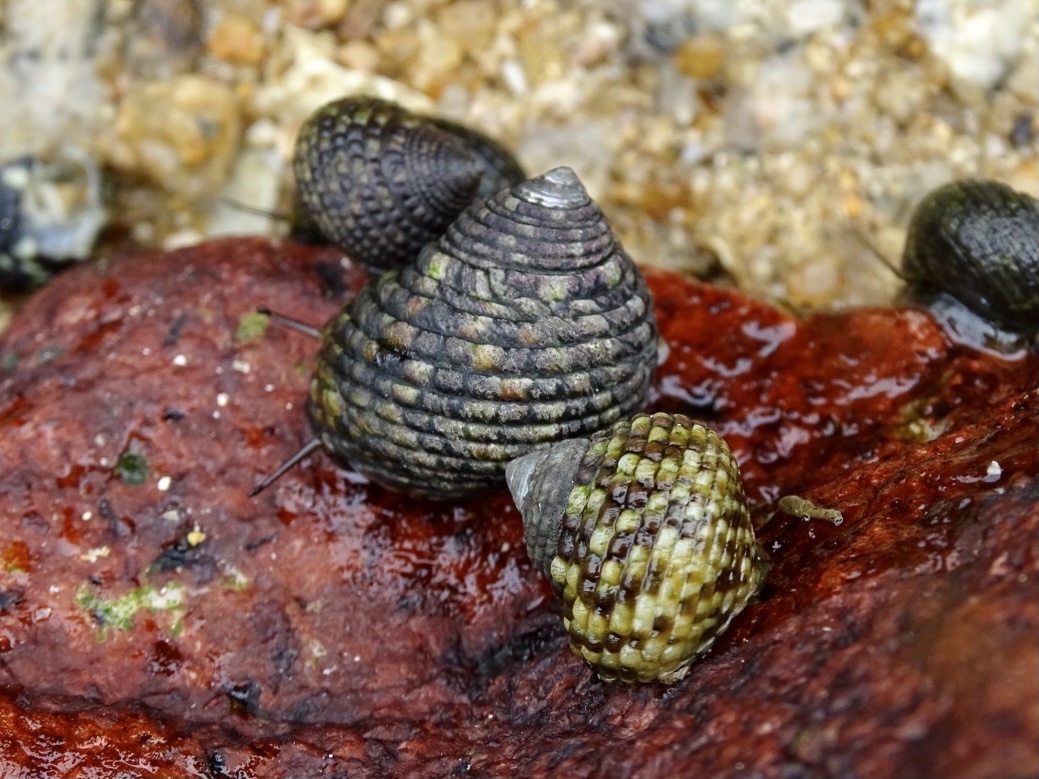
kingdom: Animalia
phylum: Mollusca
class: Gastropoda
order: Trochida
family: Trochidae
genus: Monodonta
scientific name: Monodonta labio
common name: Labio
